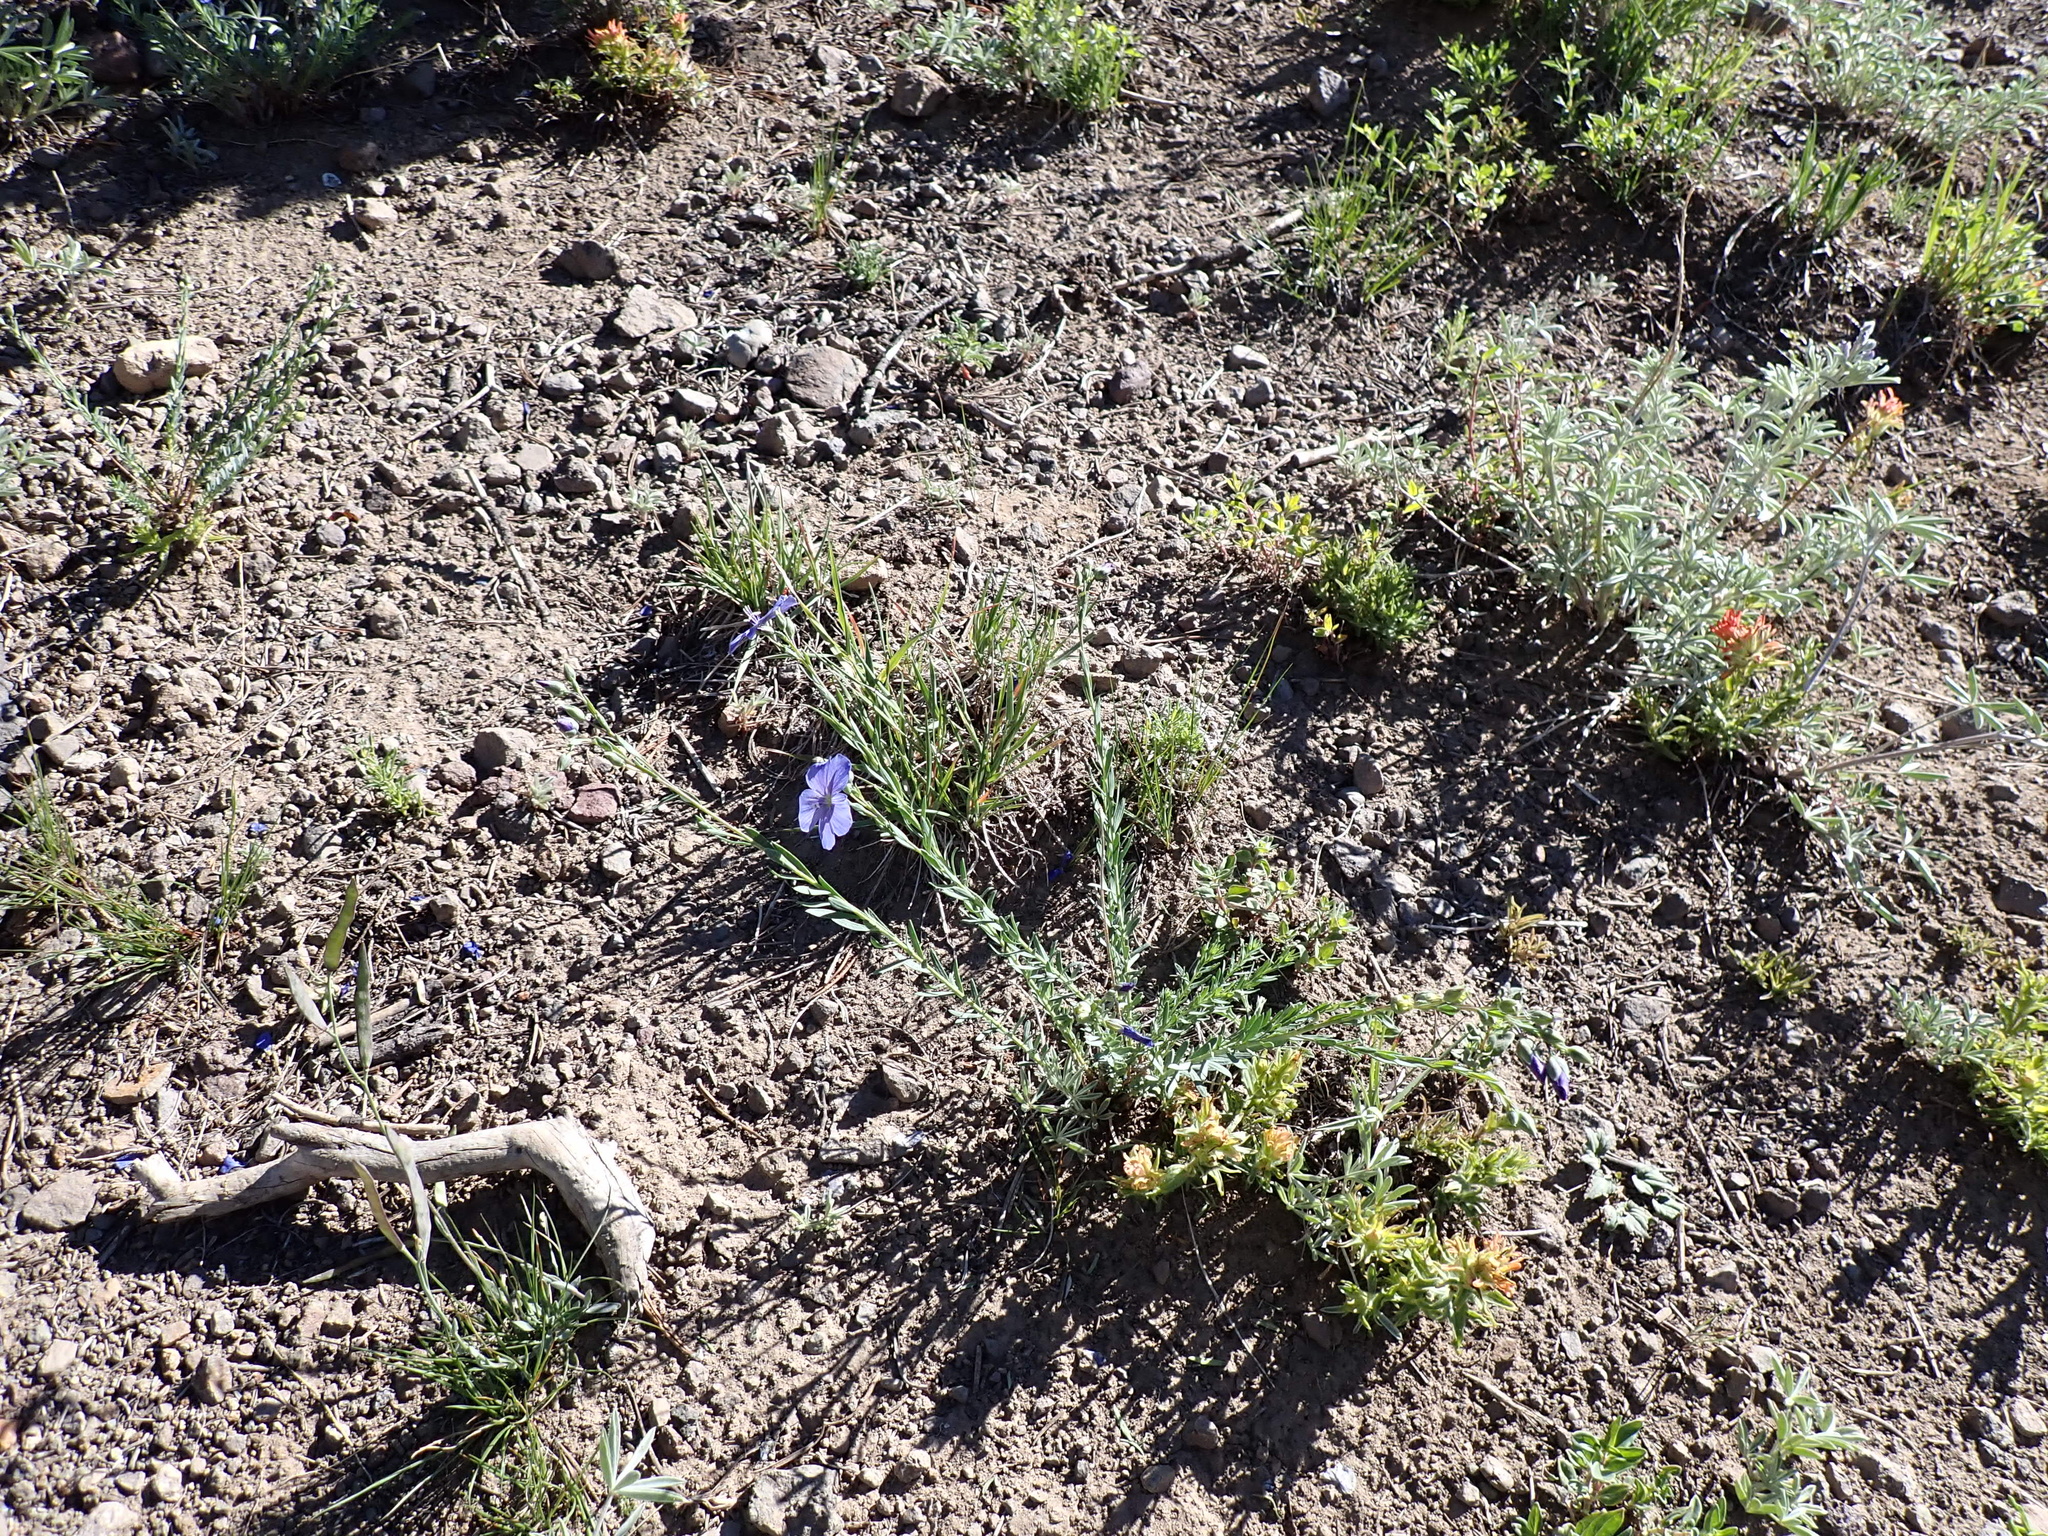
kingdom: Plantae
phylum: Tracheophyta
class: Magnoliopsida
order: Malpighiales
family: Linaceae
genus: Linum
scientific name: Linum lewisii
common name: Prairie flax
